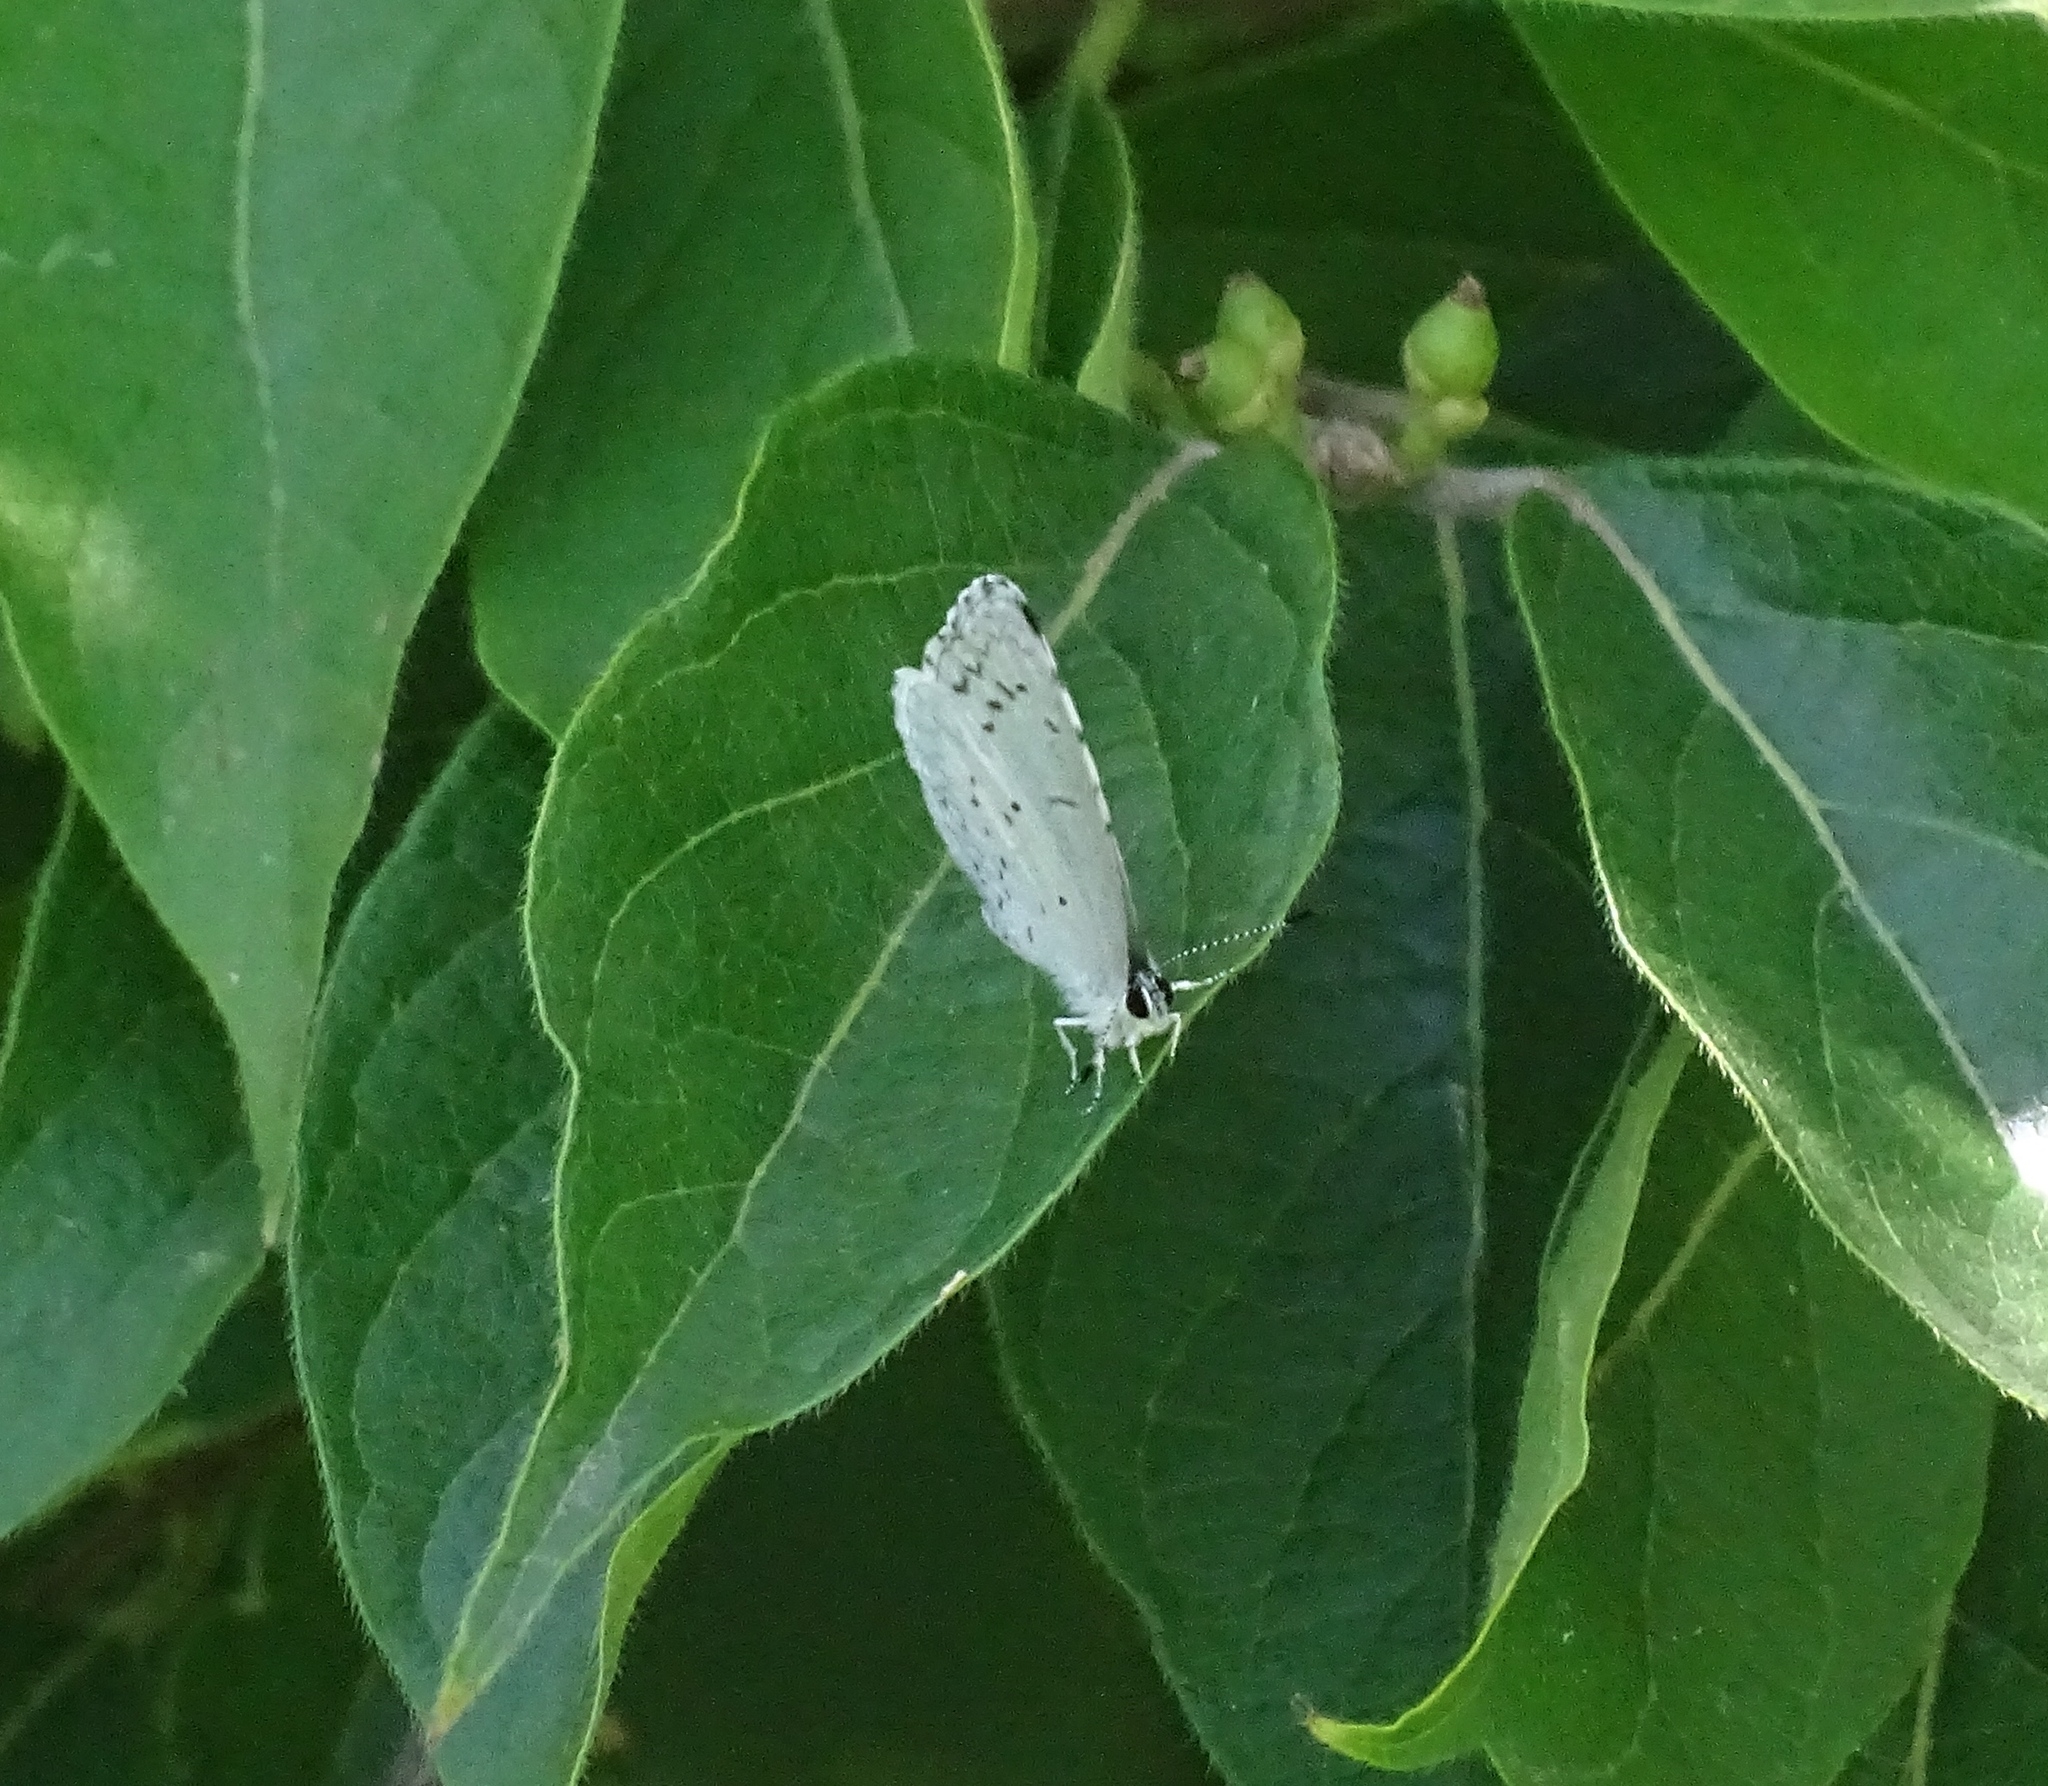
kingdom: Animalia
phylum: Arthropoda
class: Insecta
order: Lepidoptera
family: Lycaenidae
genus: Cyaniris
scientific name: Cyaniris neglecta
